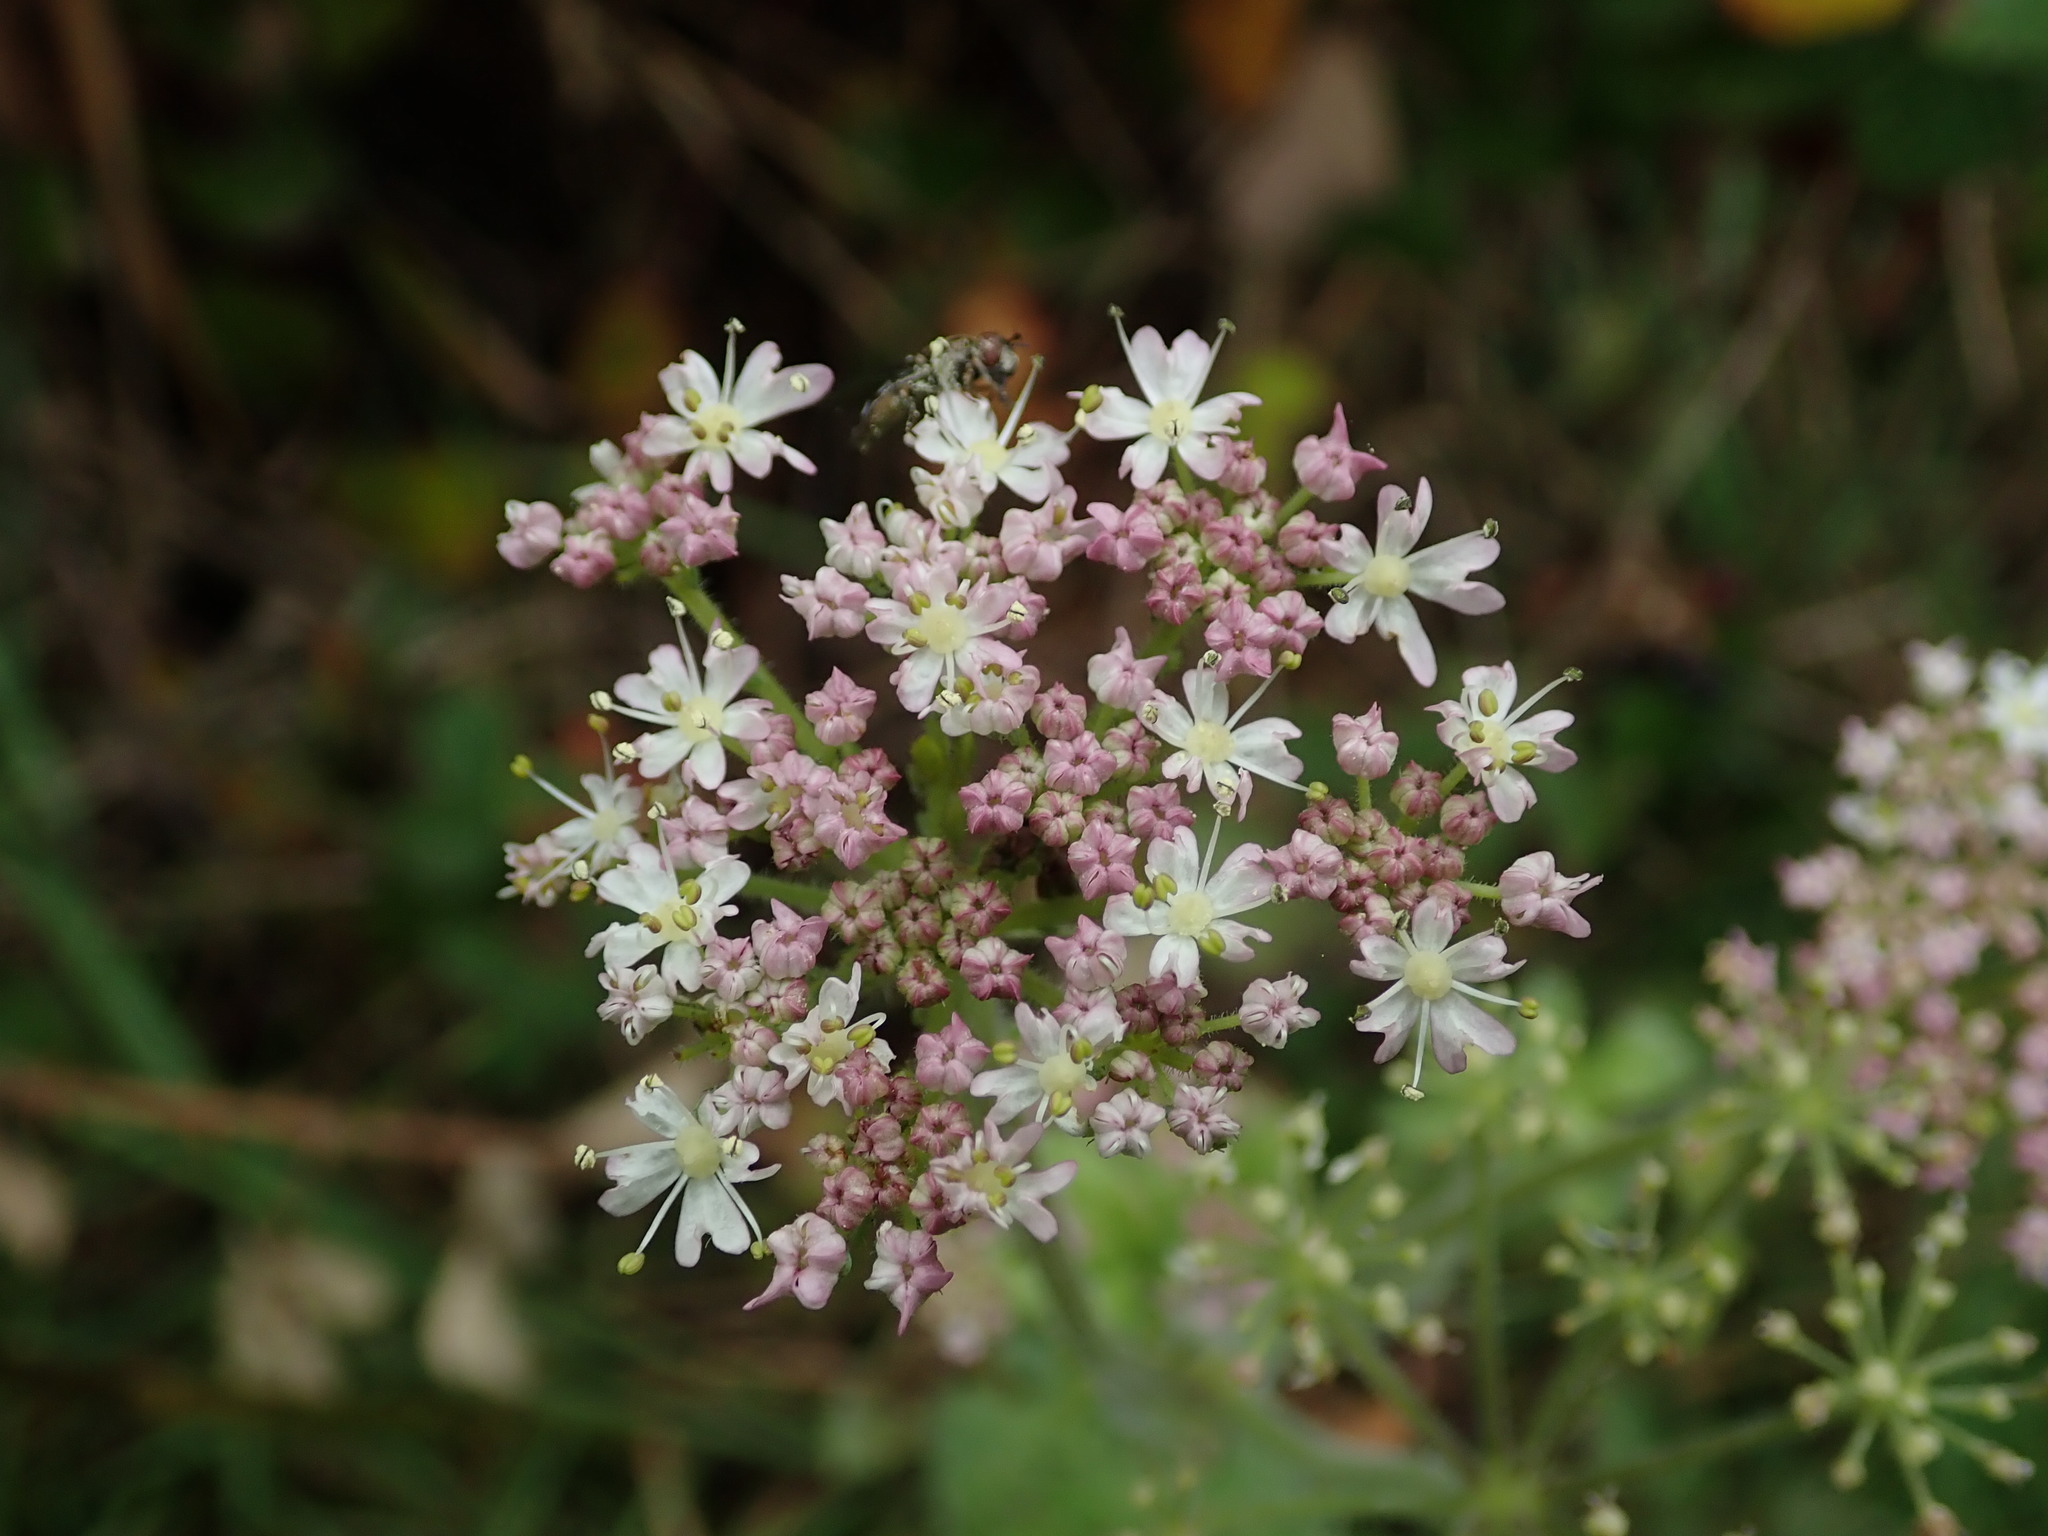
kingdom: Plantae
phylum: Tracheophyta
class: Magnoliopsida
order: Apiales
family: Apiaceae
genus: Heracleum
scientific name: Heracleum sphondylium
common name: Hogweed
